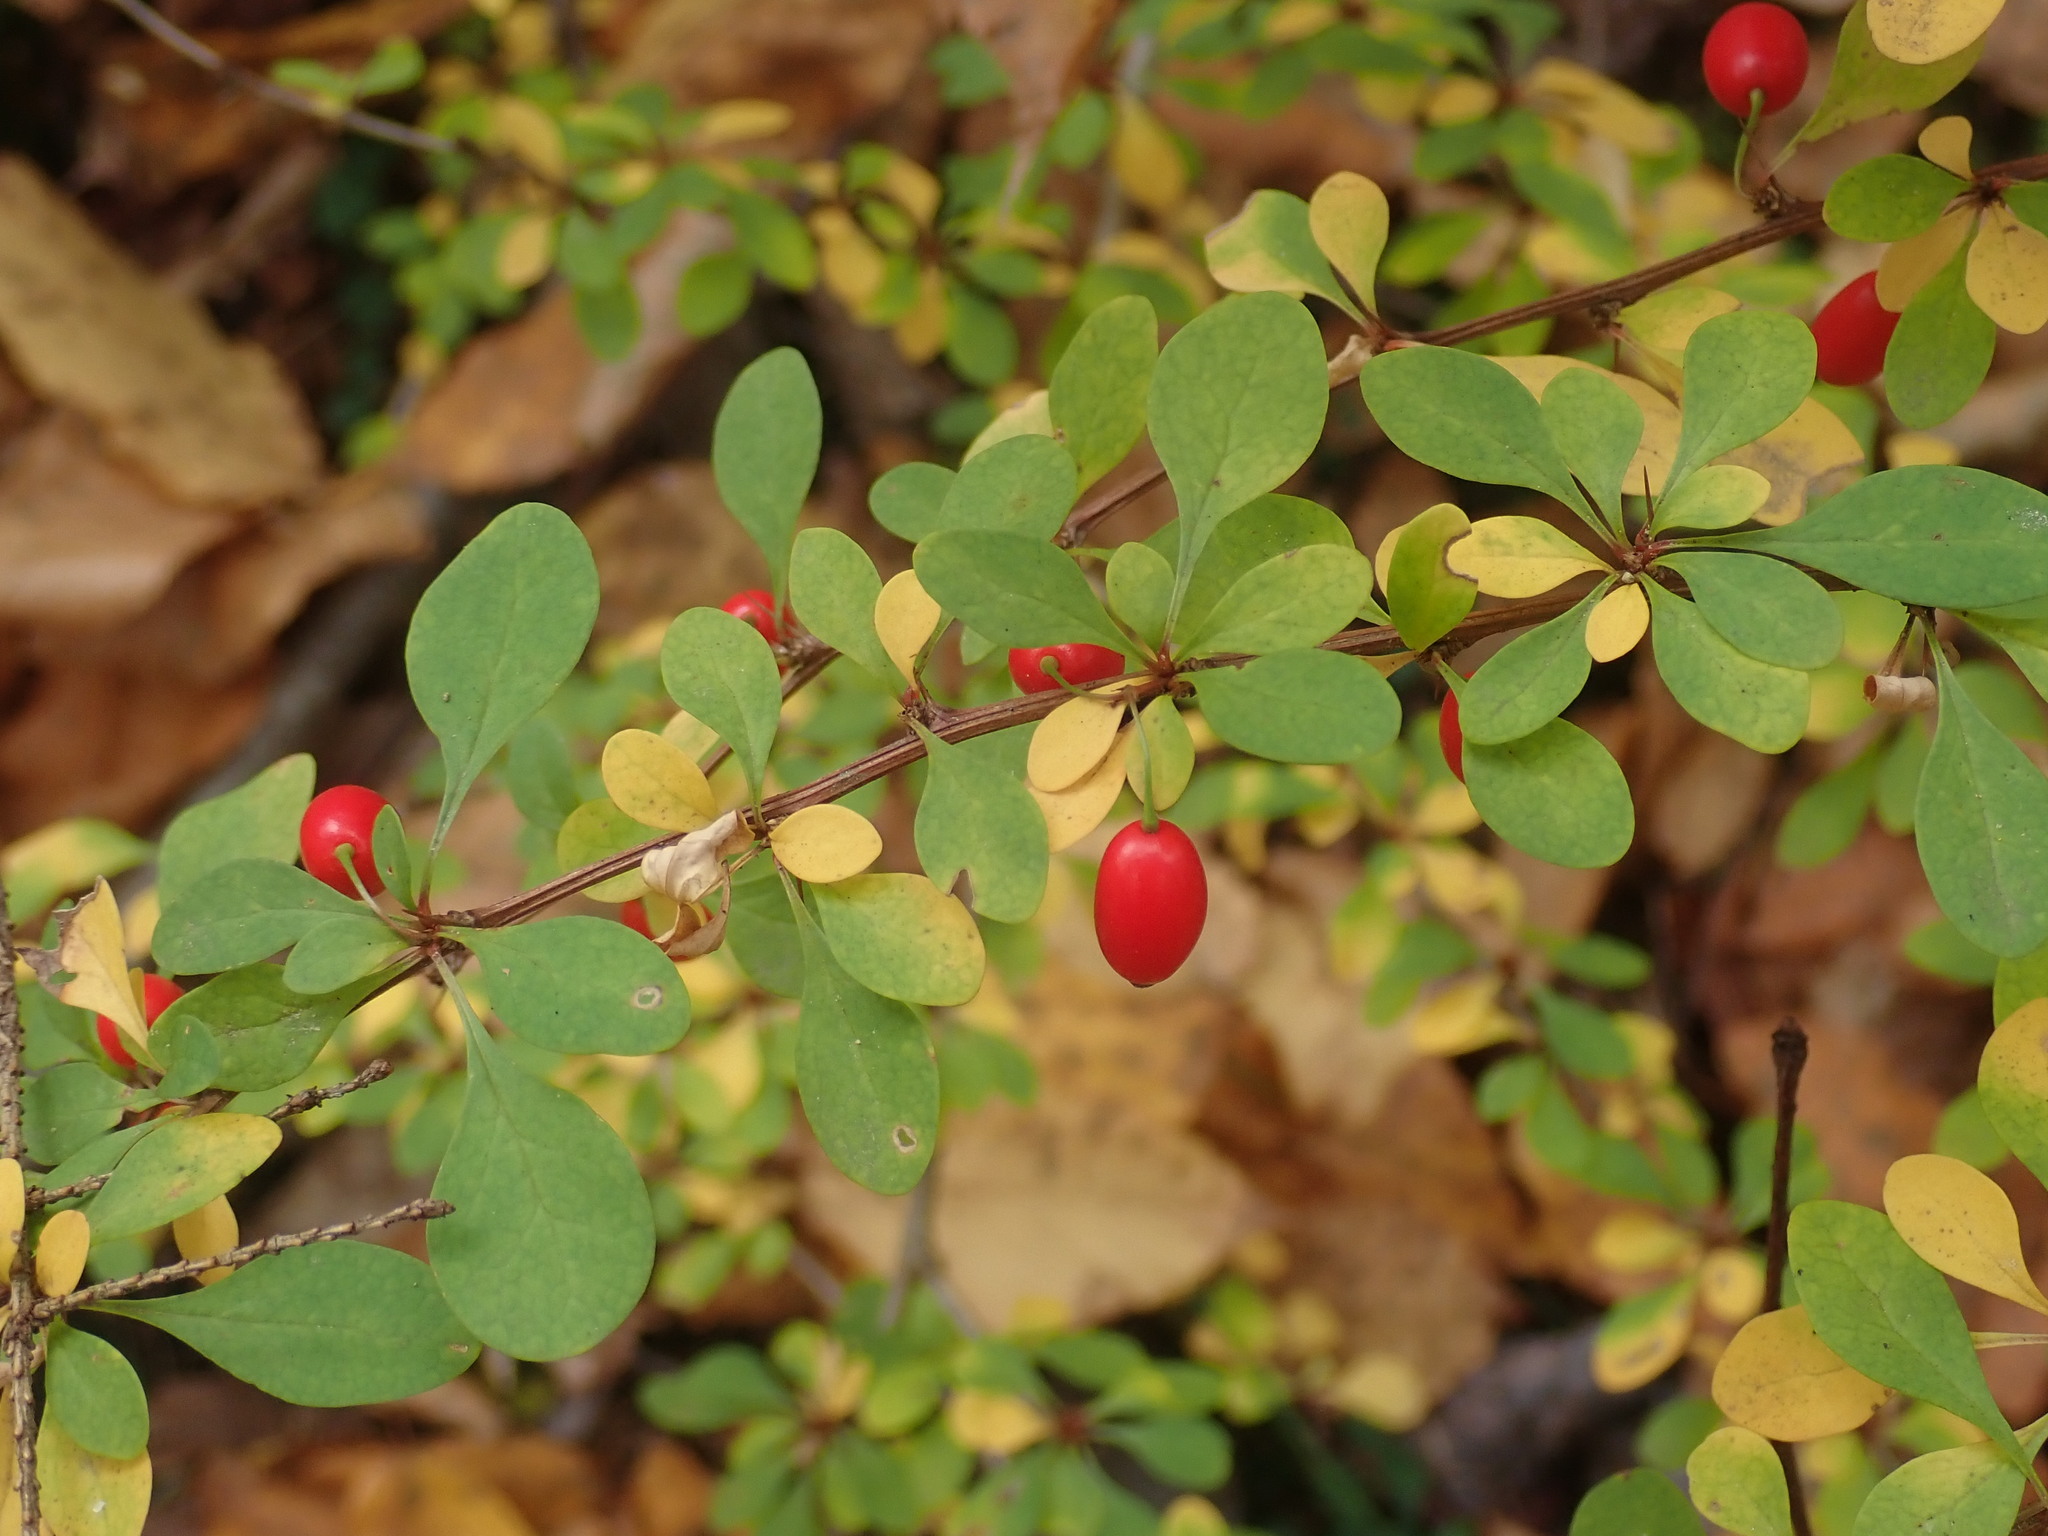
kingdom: Plantae
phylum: Tracheophyta
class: Magnoliopsida
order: Ranunculales
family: Berberidaceae
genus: Berberis
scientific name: Berberis thunbergii
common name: Japanese barberry
